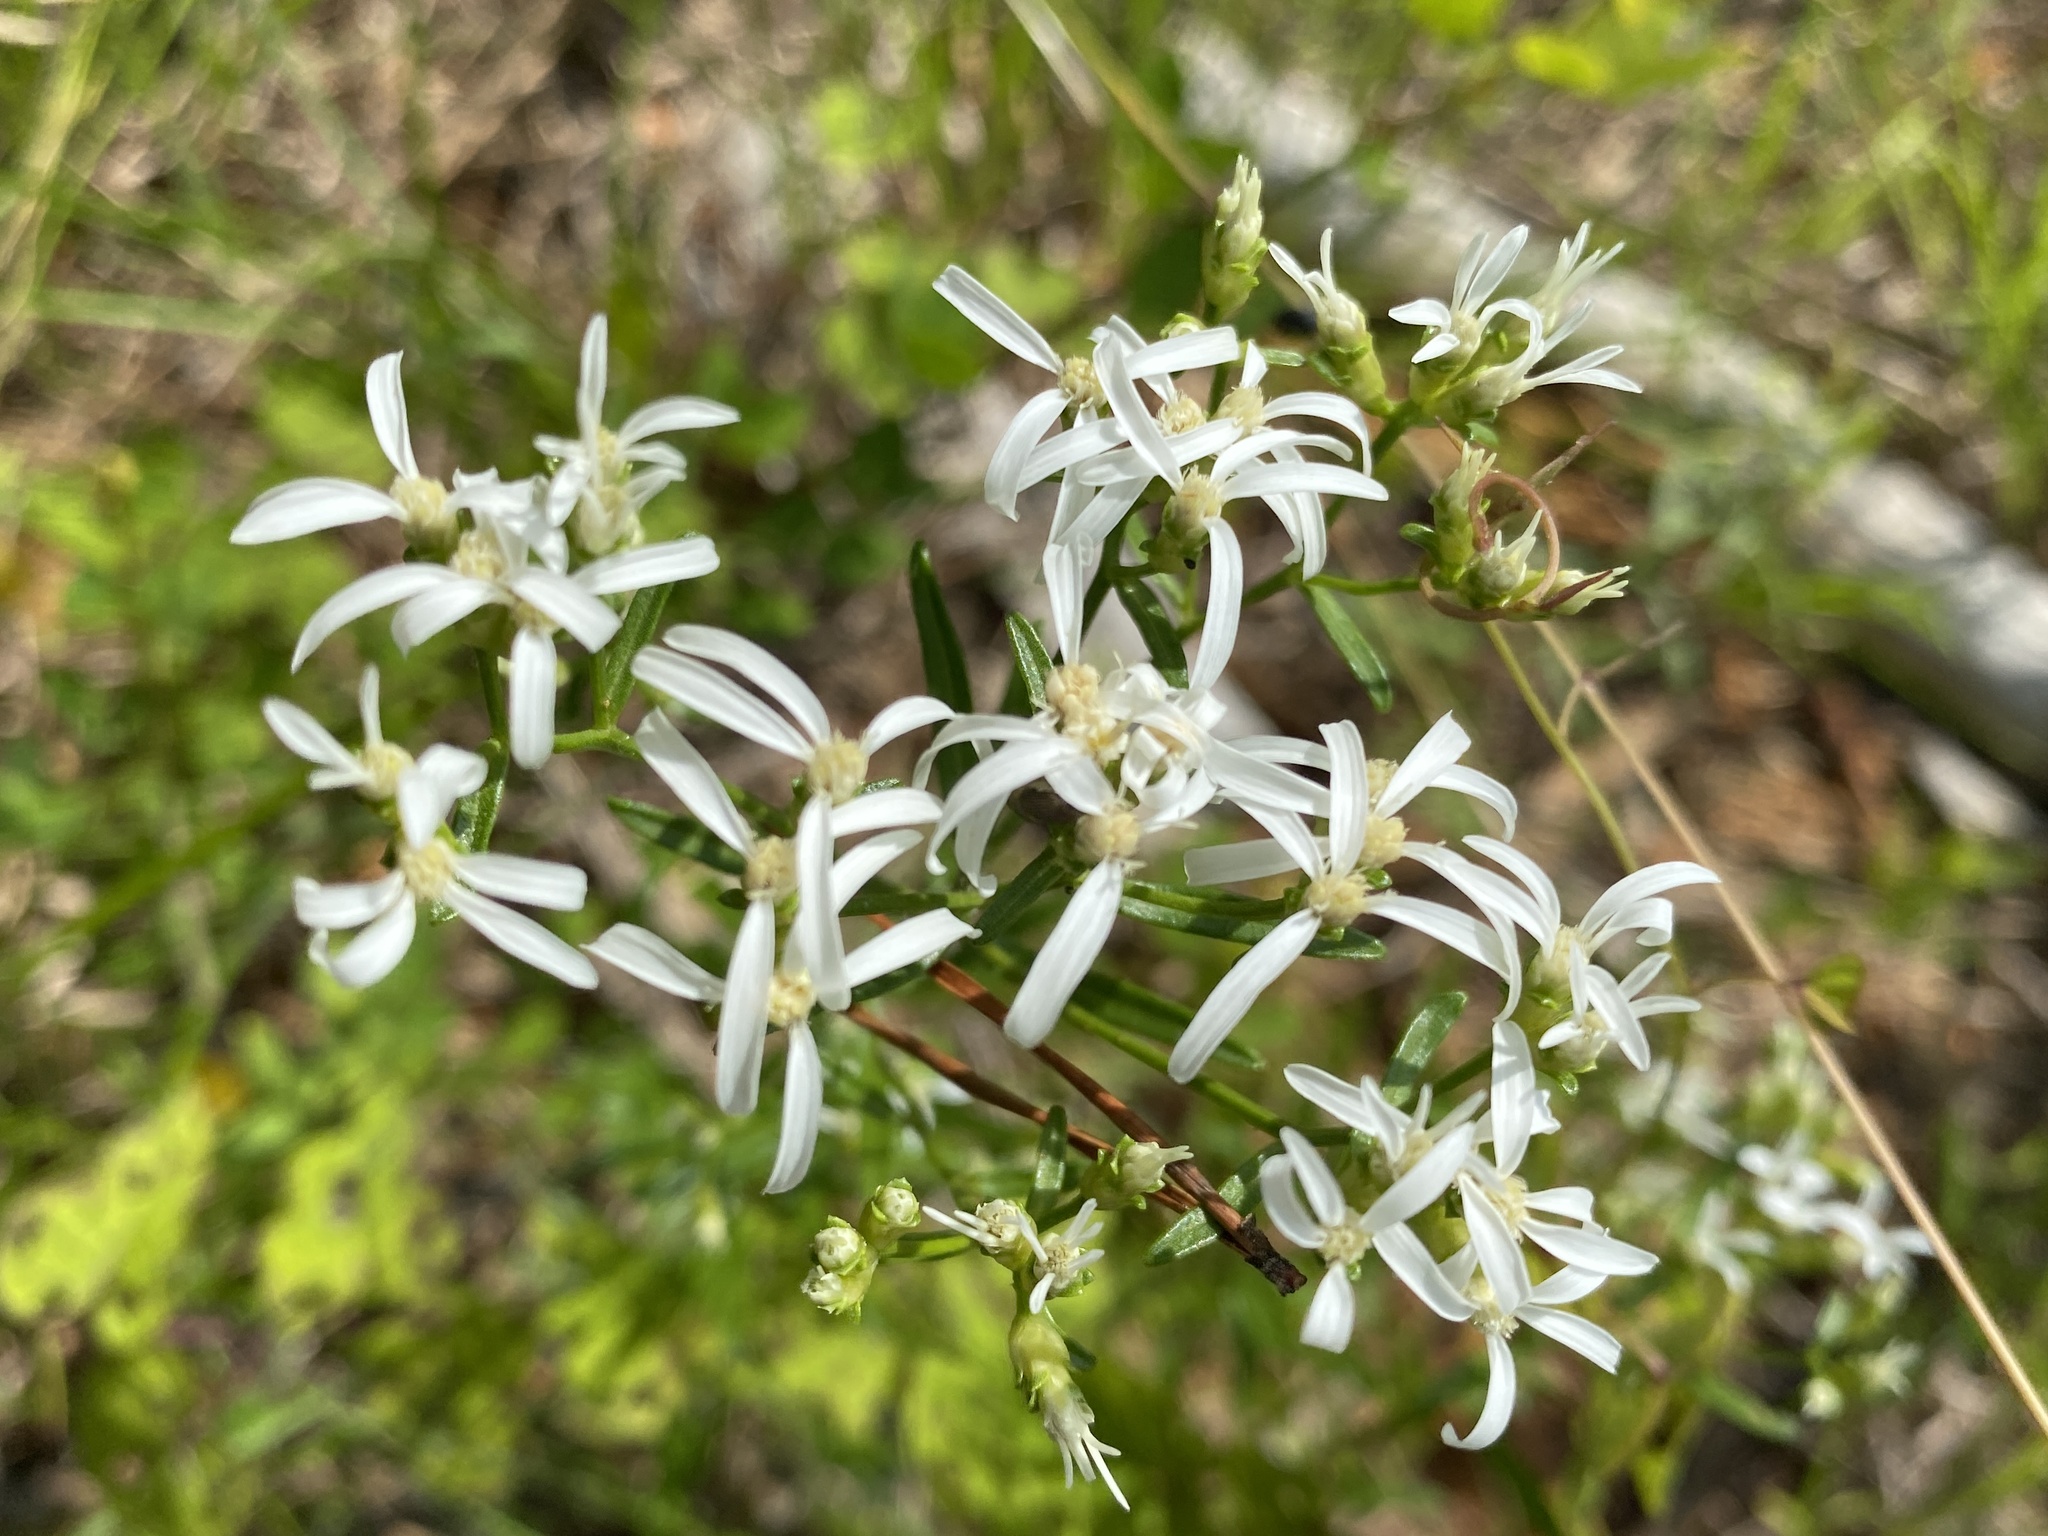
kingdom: Plantae
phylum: Tracheophyta
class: Magnoliopsida
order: Asterales
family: Asteraceae
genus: Sericocarpus
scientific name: Sericocarpus linifolius
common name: Narrow-leaf aster
